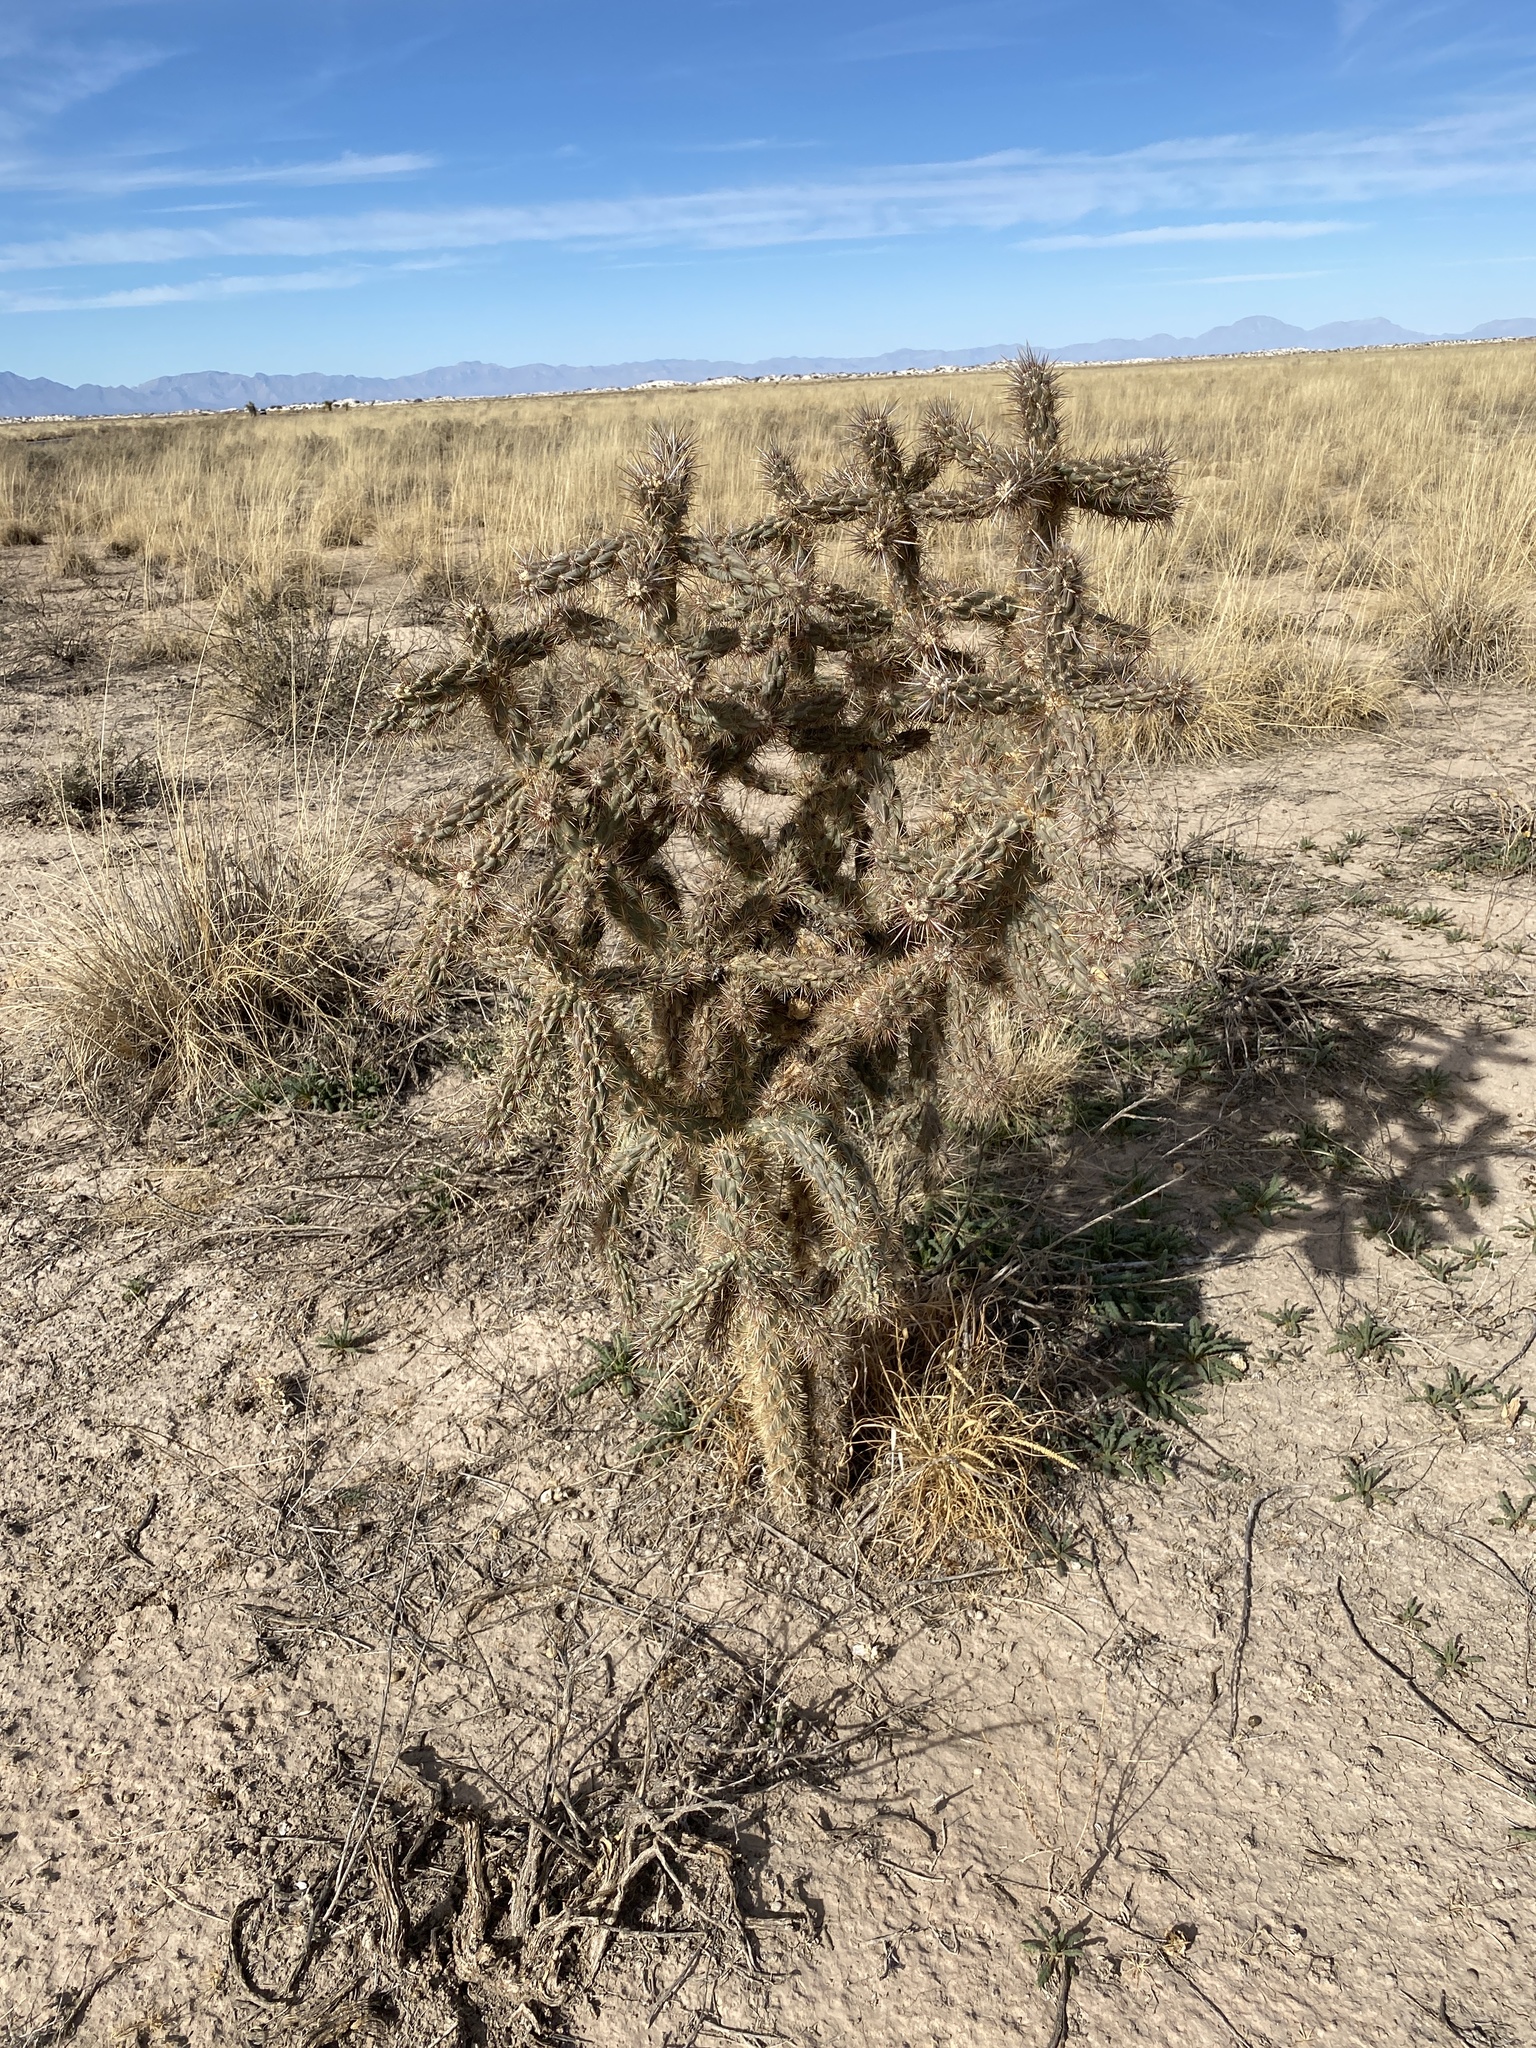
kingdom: Plantae
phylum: Tracheophyta
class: Magnoliopsida
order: Caryophyllales
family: Cactaceae
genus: Cylindropuntia
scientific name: Cylindropuntia imbricata
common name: Candelabrum cactus
